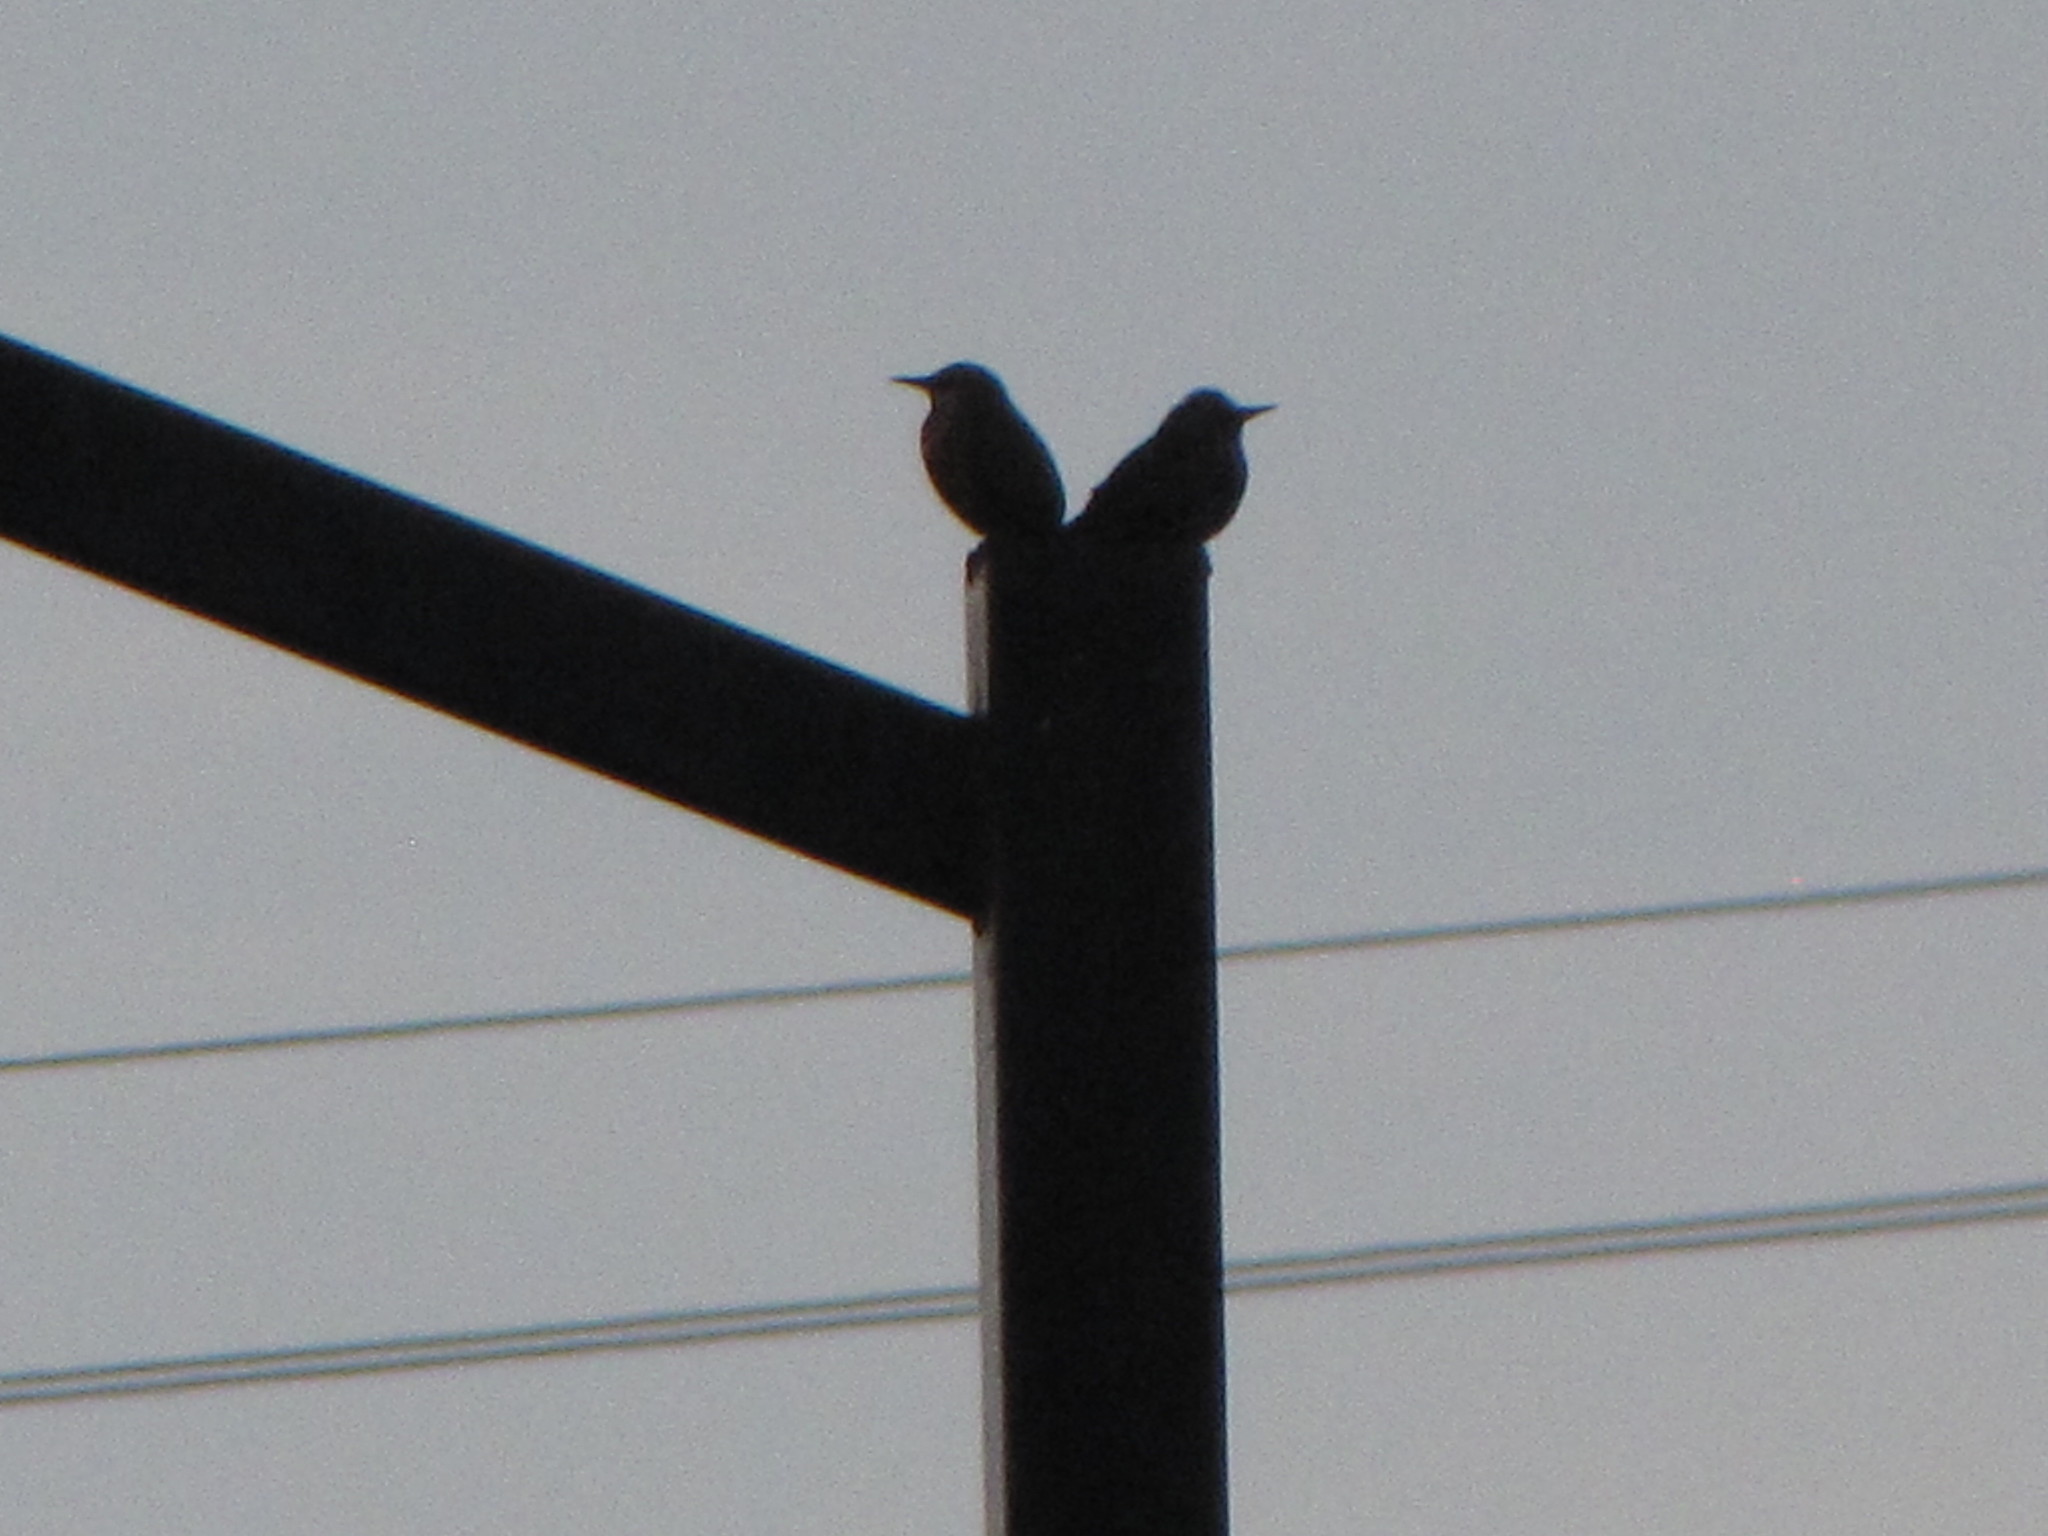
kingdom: Animalia
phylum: Chordata
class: Aves
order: Passeriformes
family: Sturnidae
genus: Sturnus
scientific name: Sturnus vulgaris
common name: Common starling
